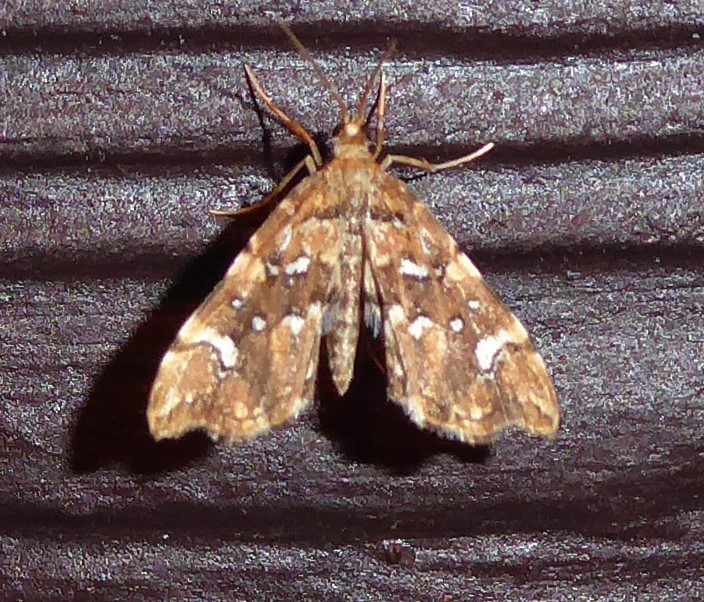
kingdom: Animalia
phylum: Arthropoda
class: Insecta
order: Lepidoptera
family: Pyralidae
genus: Musotima
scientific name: Musotima nitidalis
